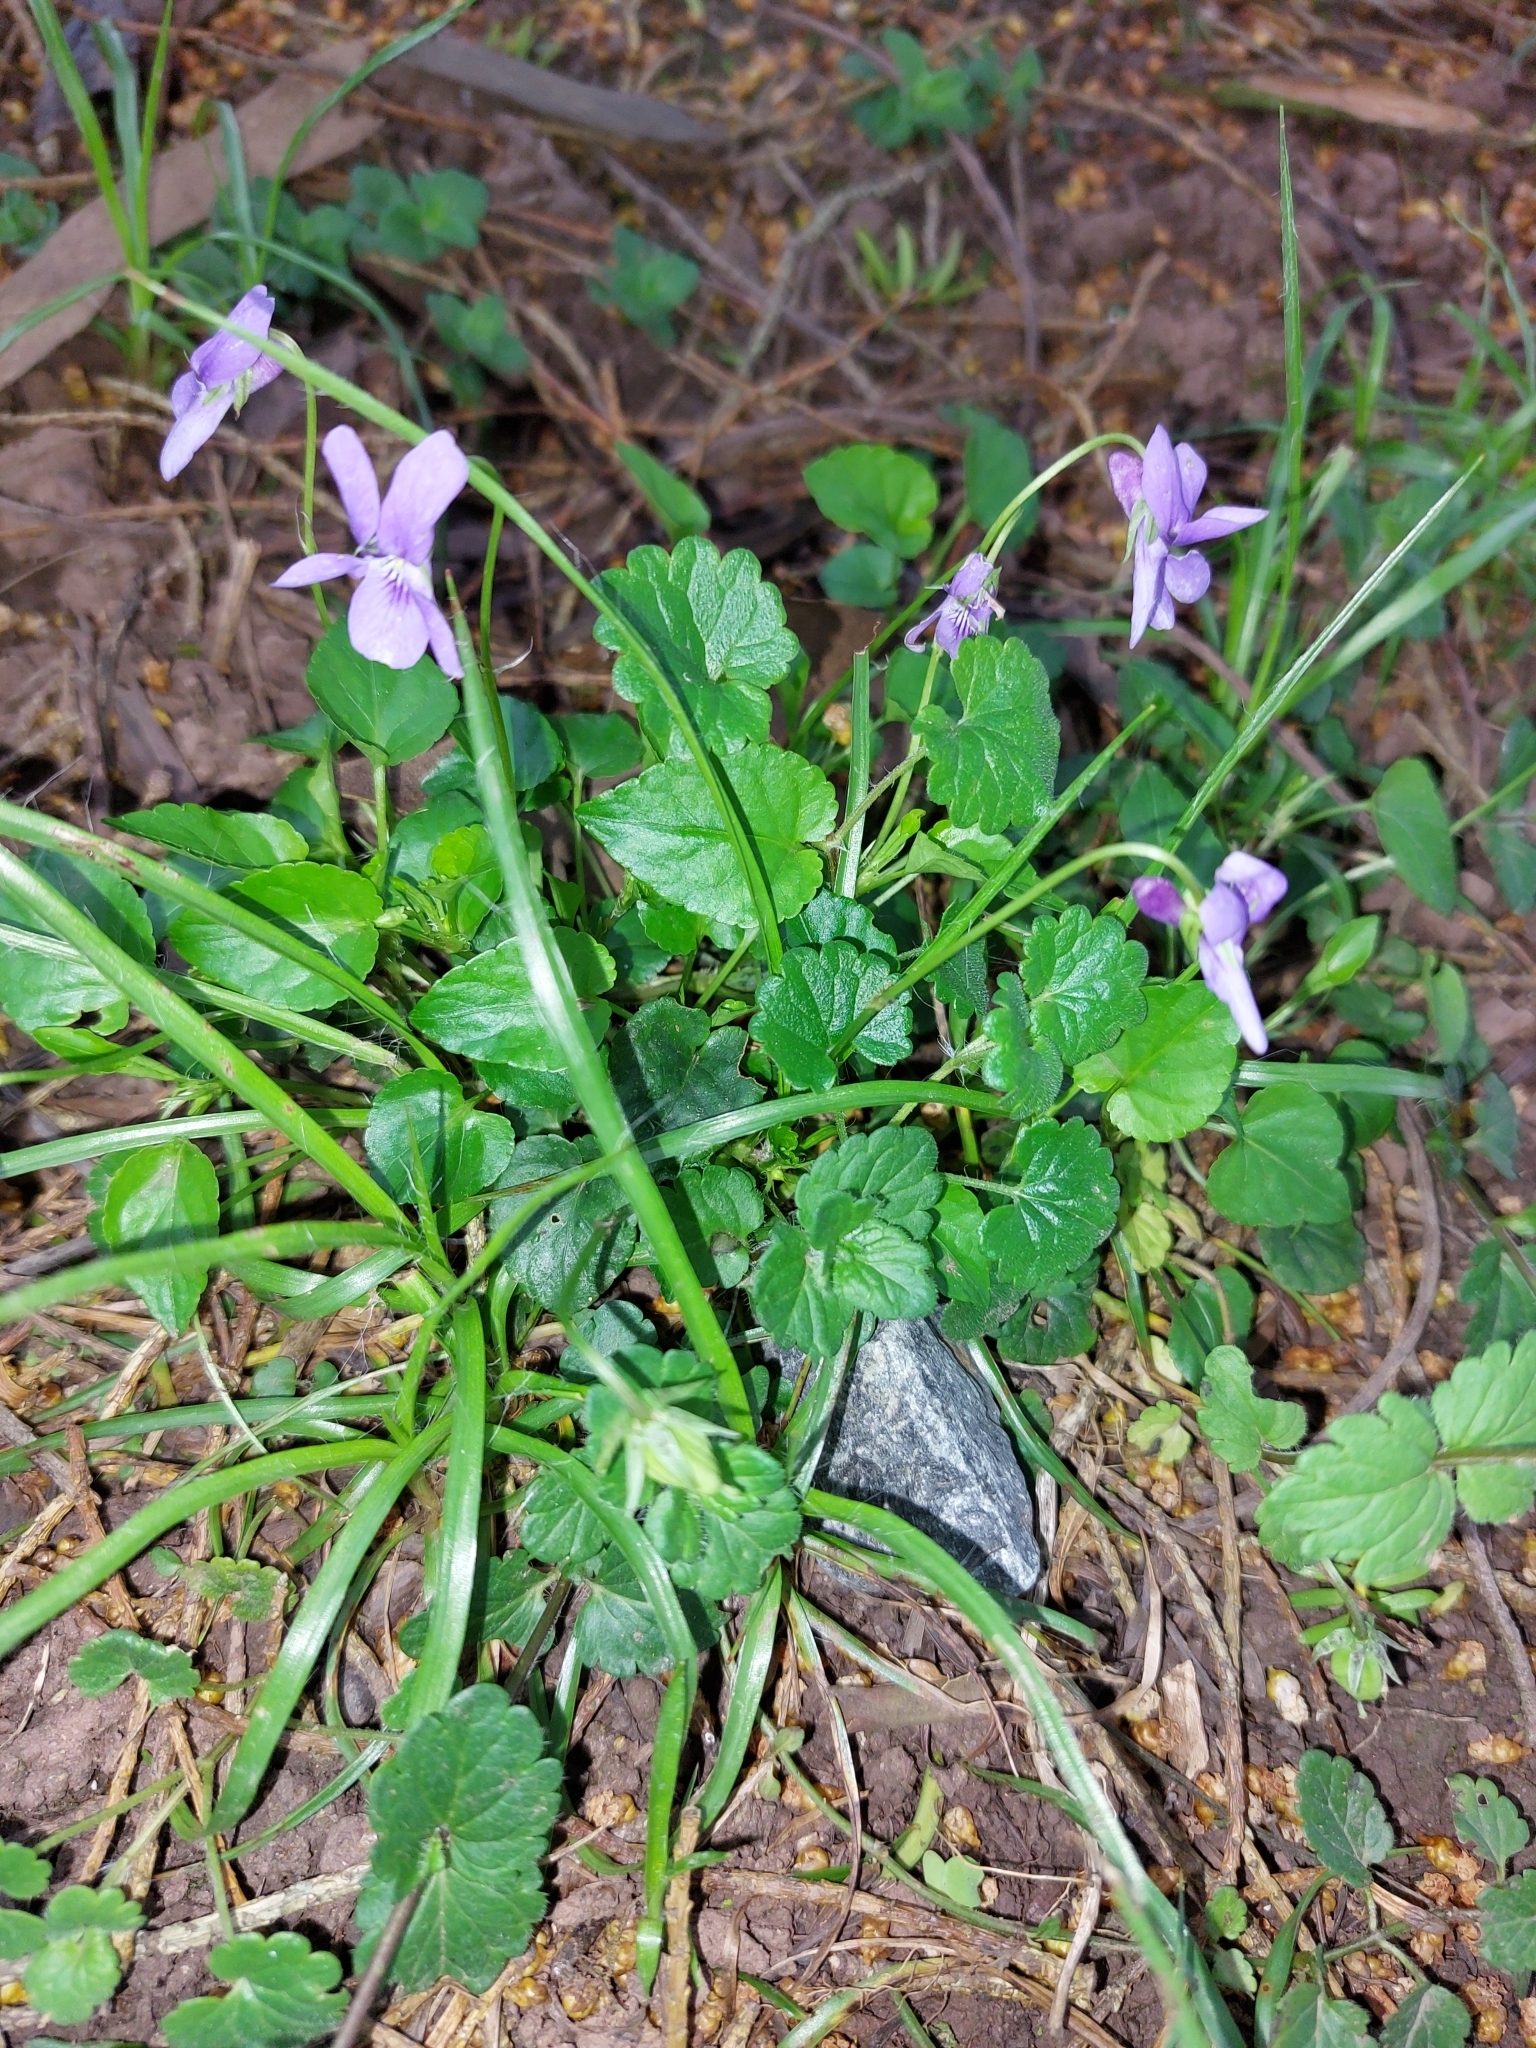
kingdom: Plantae
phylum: Tracheophyta
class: Magnoliopsida
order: Malpighiales
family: Violaceae
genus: Viola
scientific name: Viola reichenbachiana
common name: Early dog-violet
